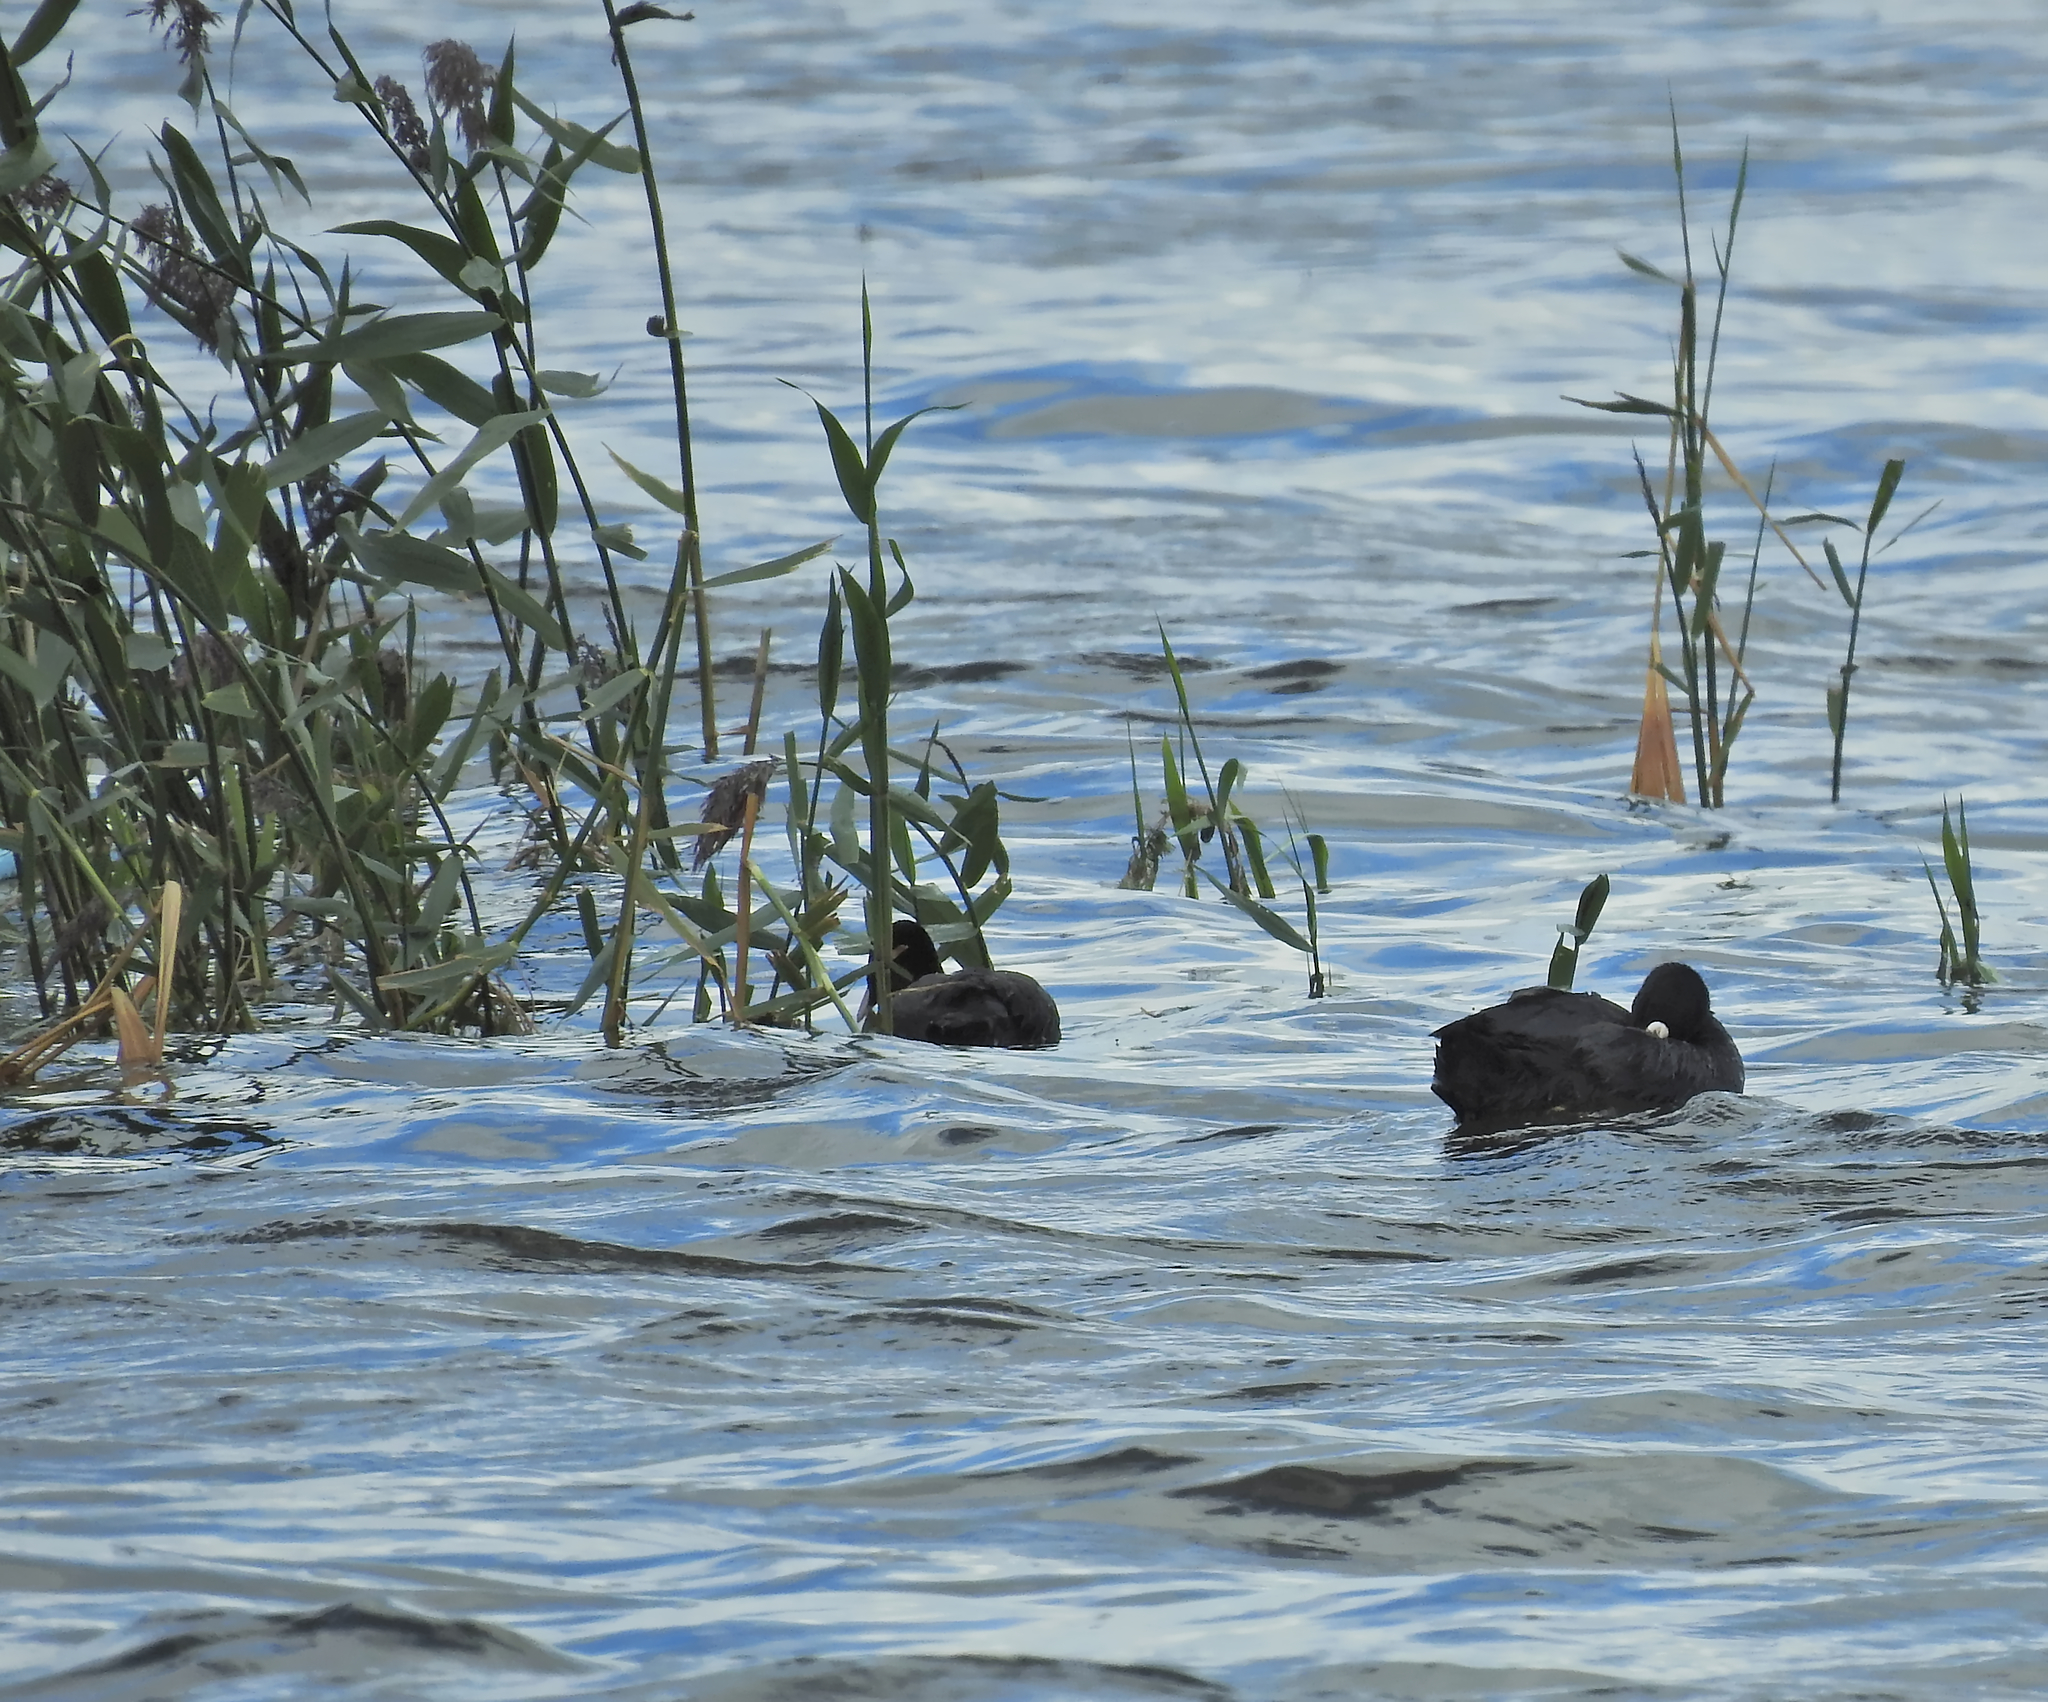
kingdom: Animalia
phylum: Chordata
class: Aves
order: Gruiformes
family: Rallidae
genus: Fulica
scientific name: Fulica atra
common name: Eurasian coot
